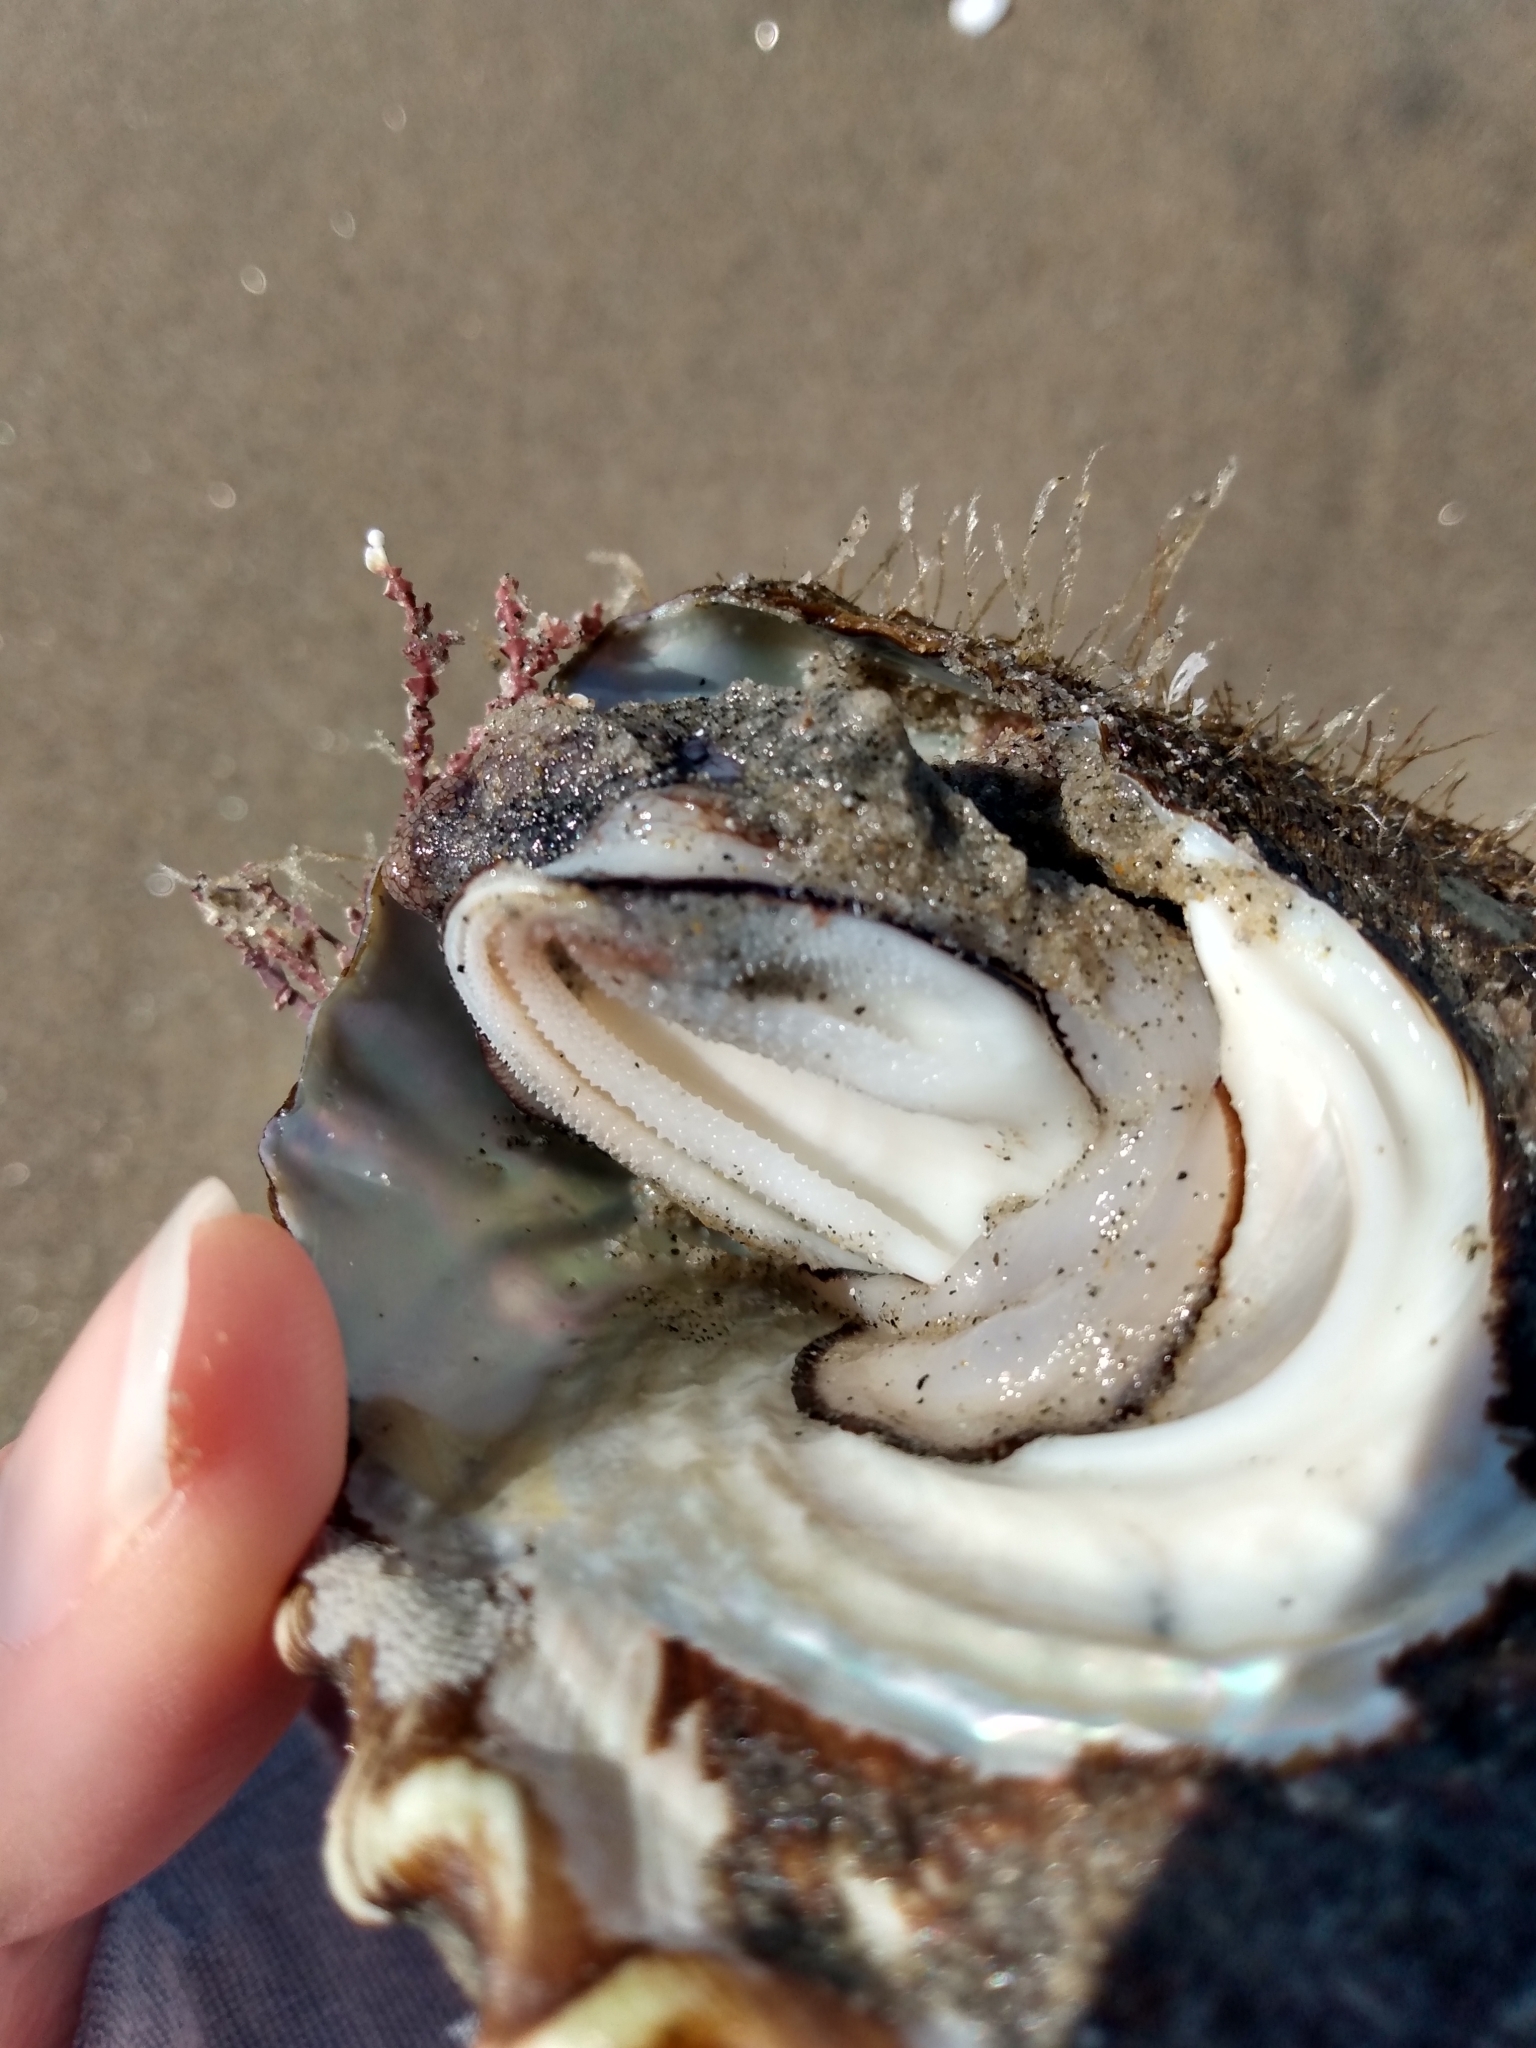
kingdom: Animalia
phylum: Mollusca
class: Gastropoda
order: Trochida
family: Turbinidae
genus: Megastraea
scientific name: Megastraea undosa
